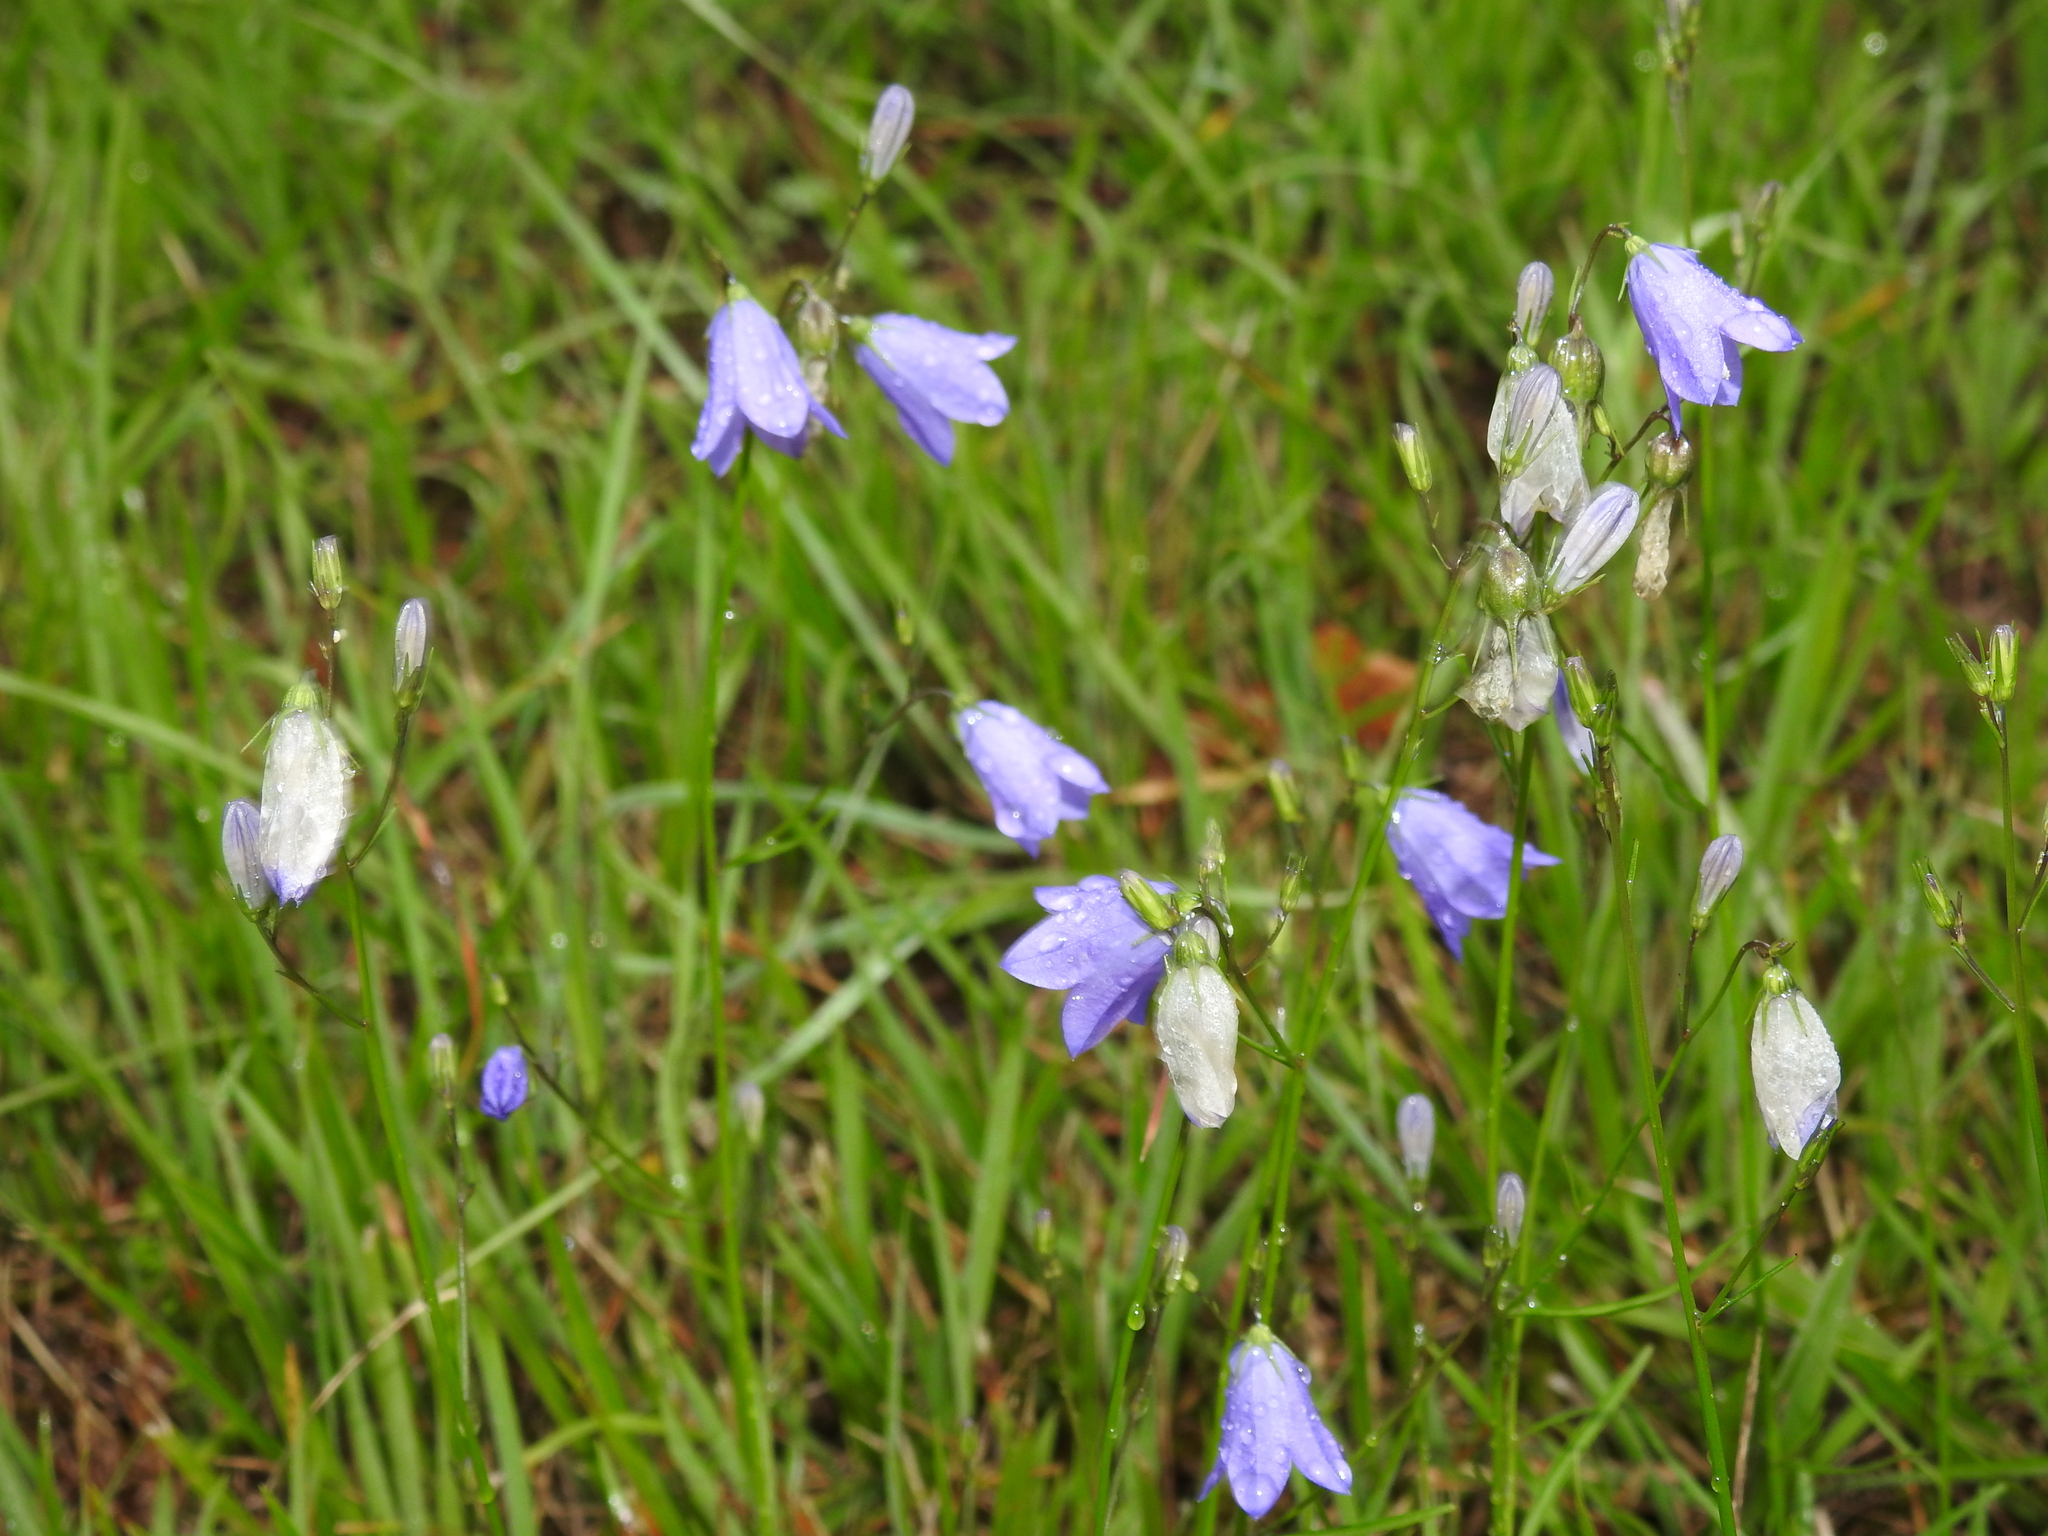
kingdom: Plantae
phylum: Tracheophyta
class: Magnoliopsida
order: Asterales
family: Campanulaceae
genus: Campanula
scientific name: Campanula rotundifolia
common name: Harebell
